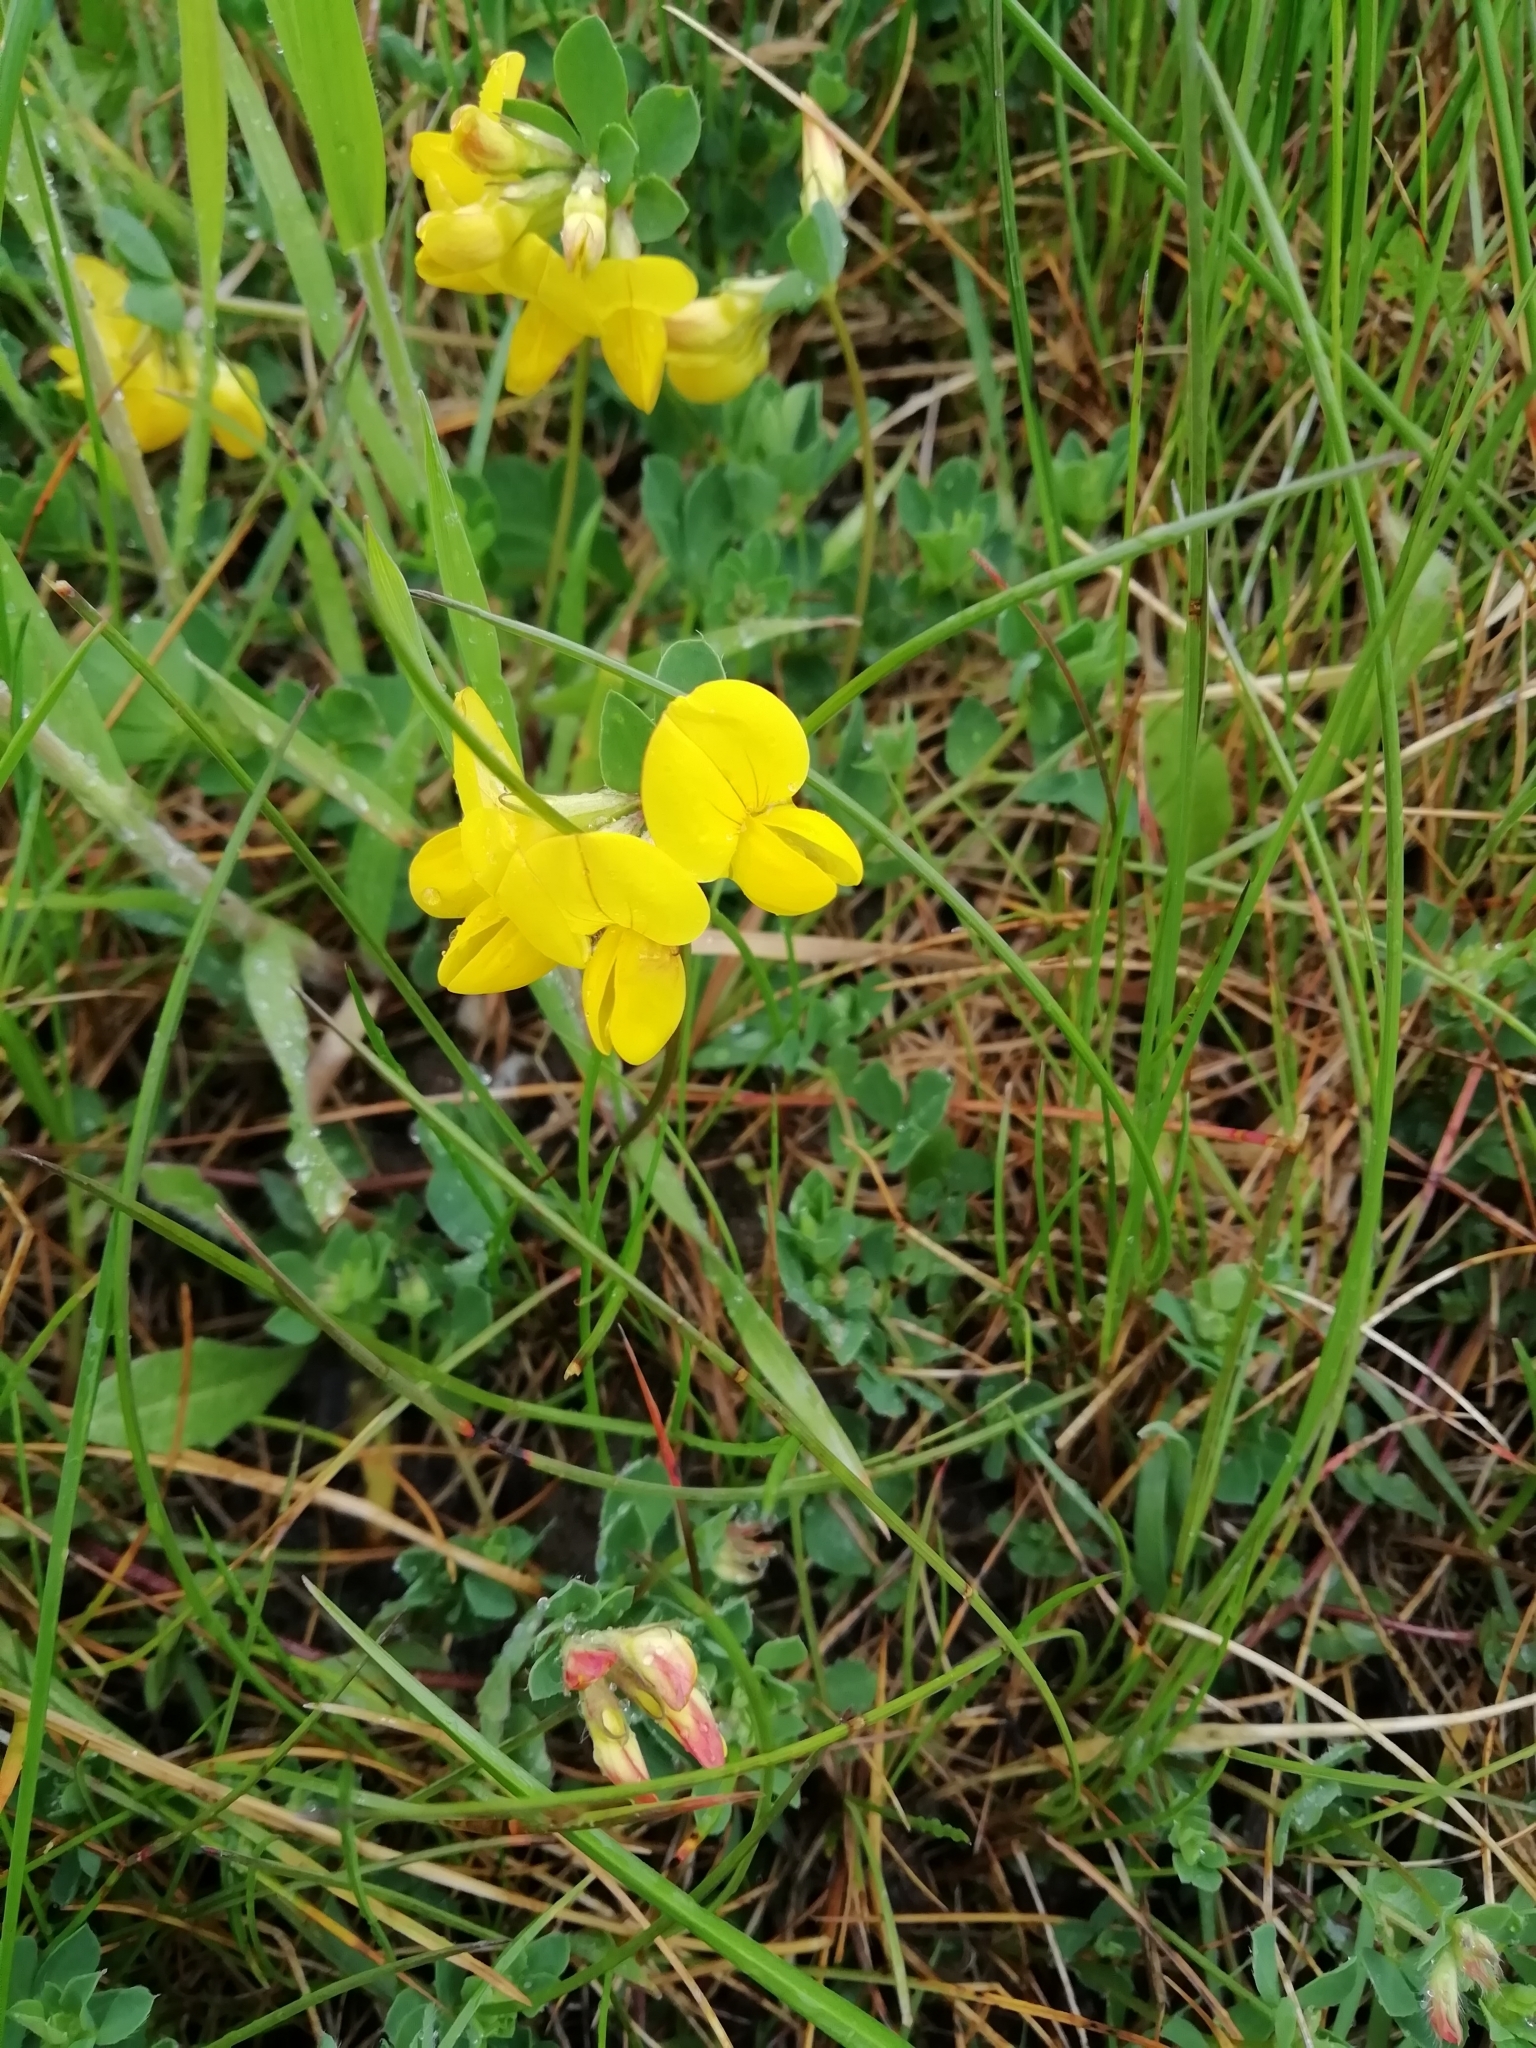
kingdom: Plantae
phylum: Tracheophyta
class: Magnoliopsida
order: Fabales
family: Fabaceae
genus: Lotus
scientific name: Lotus corniculatus
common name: Common bird's-foot-trefoil
